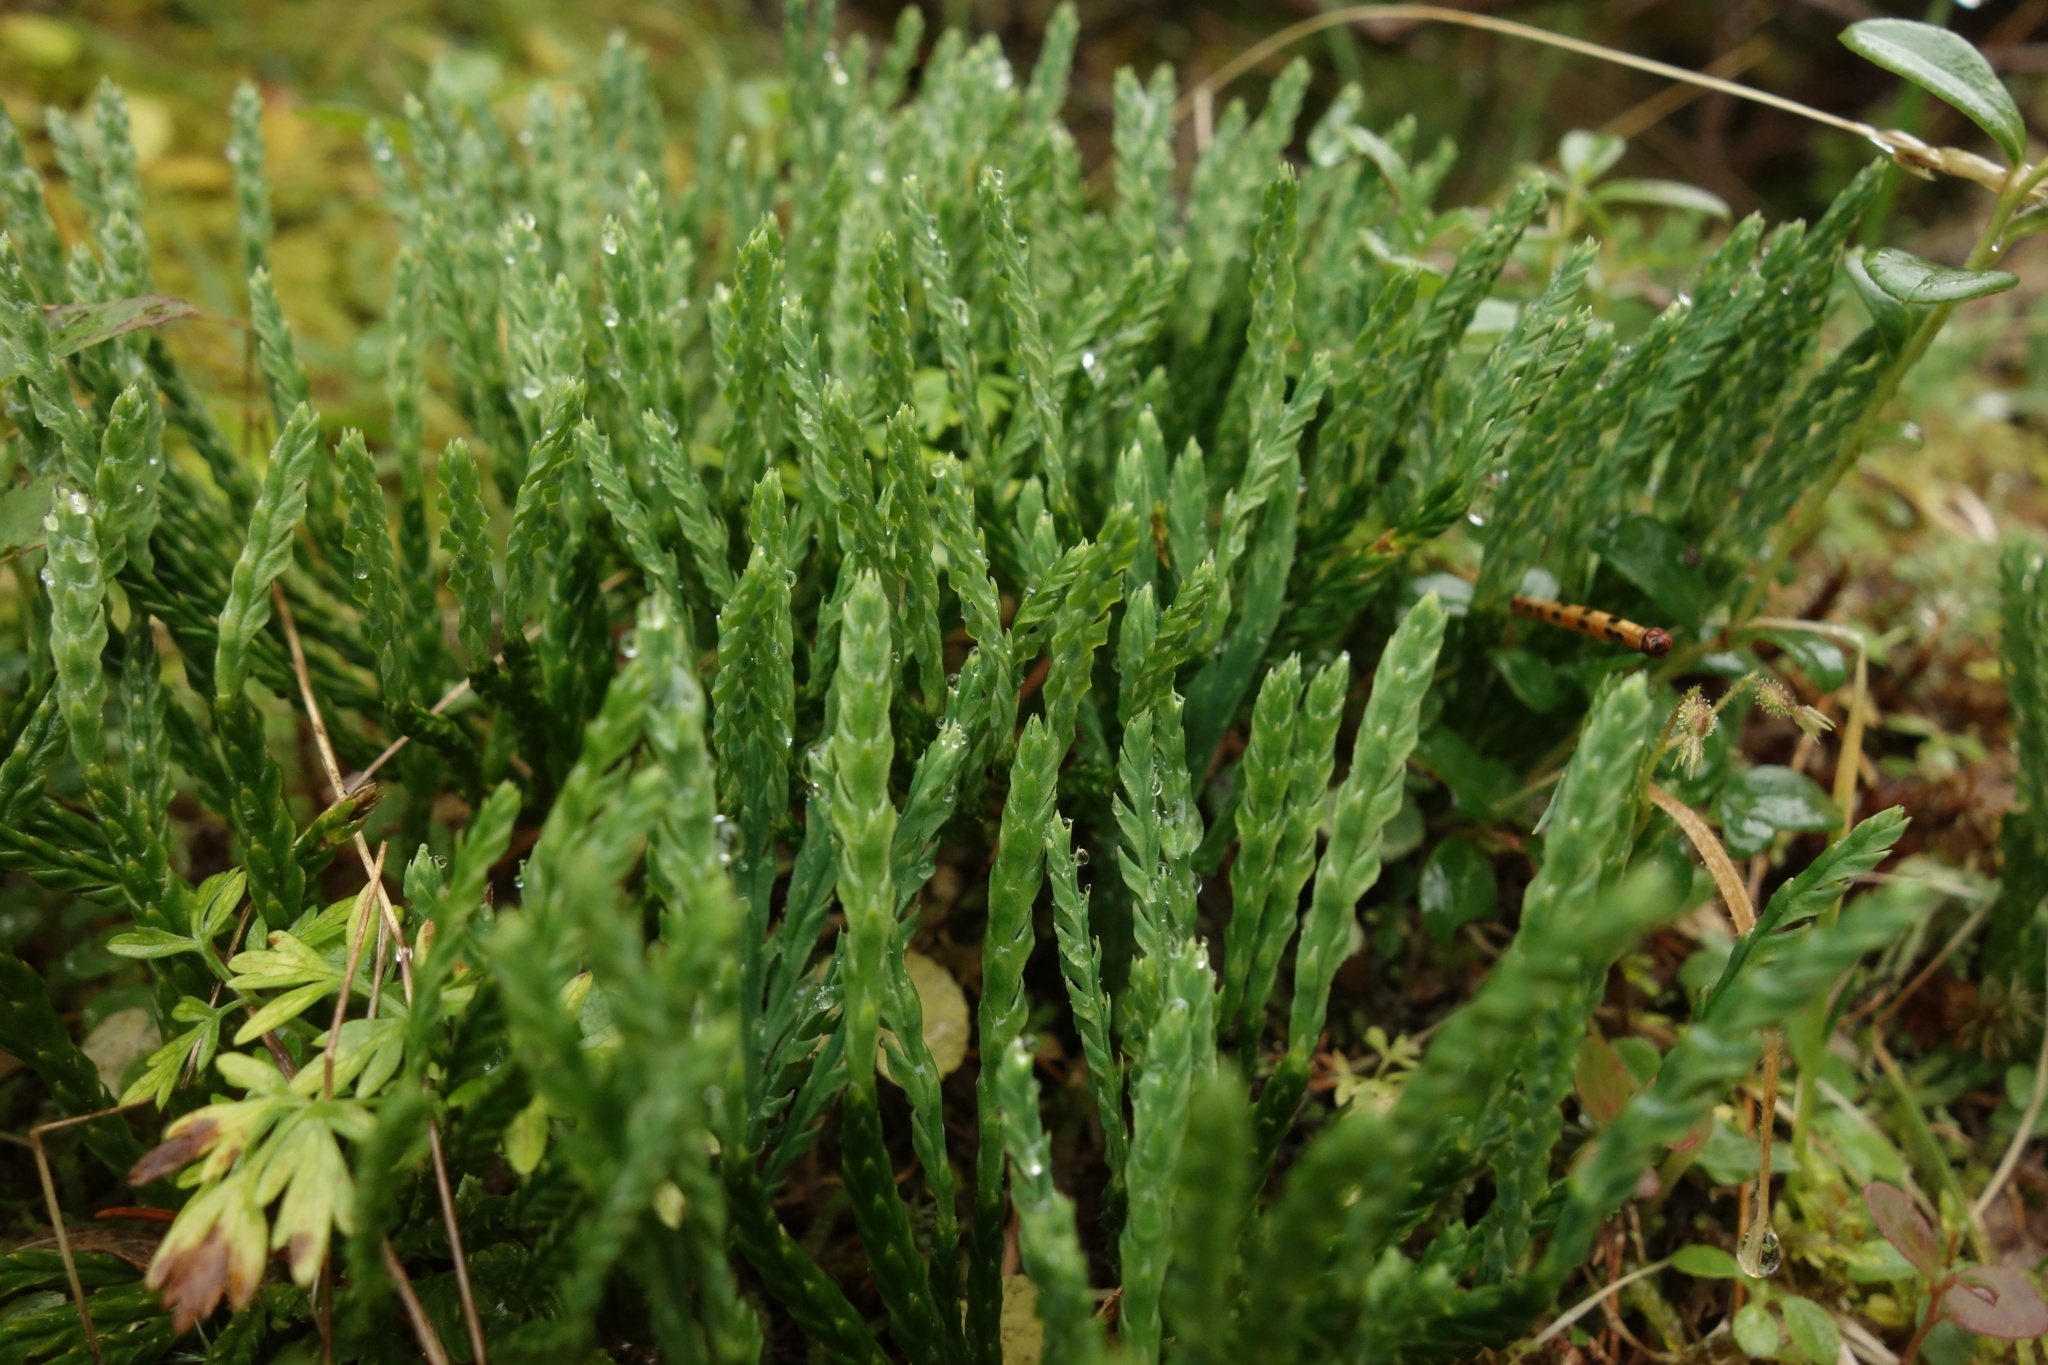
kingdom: Plantae
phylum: Tracheophyta
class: Lycopodiopsida
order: Lycopodiales
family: Lycopodiaceae
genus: Diphasiastrum
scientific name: Diphasiastrum alpinum
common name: Alpine clubmoss
